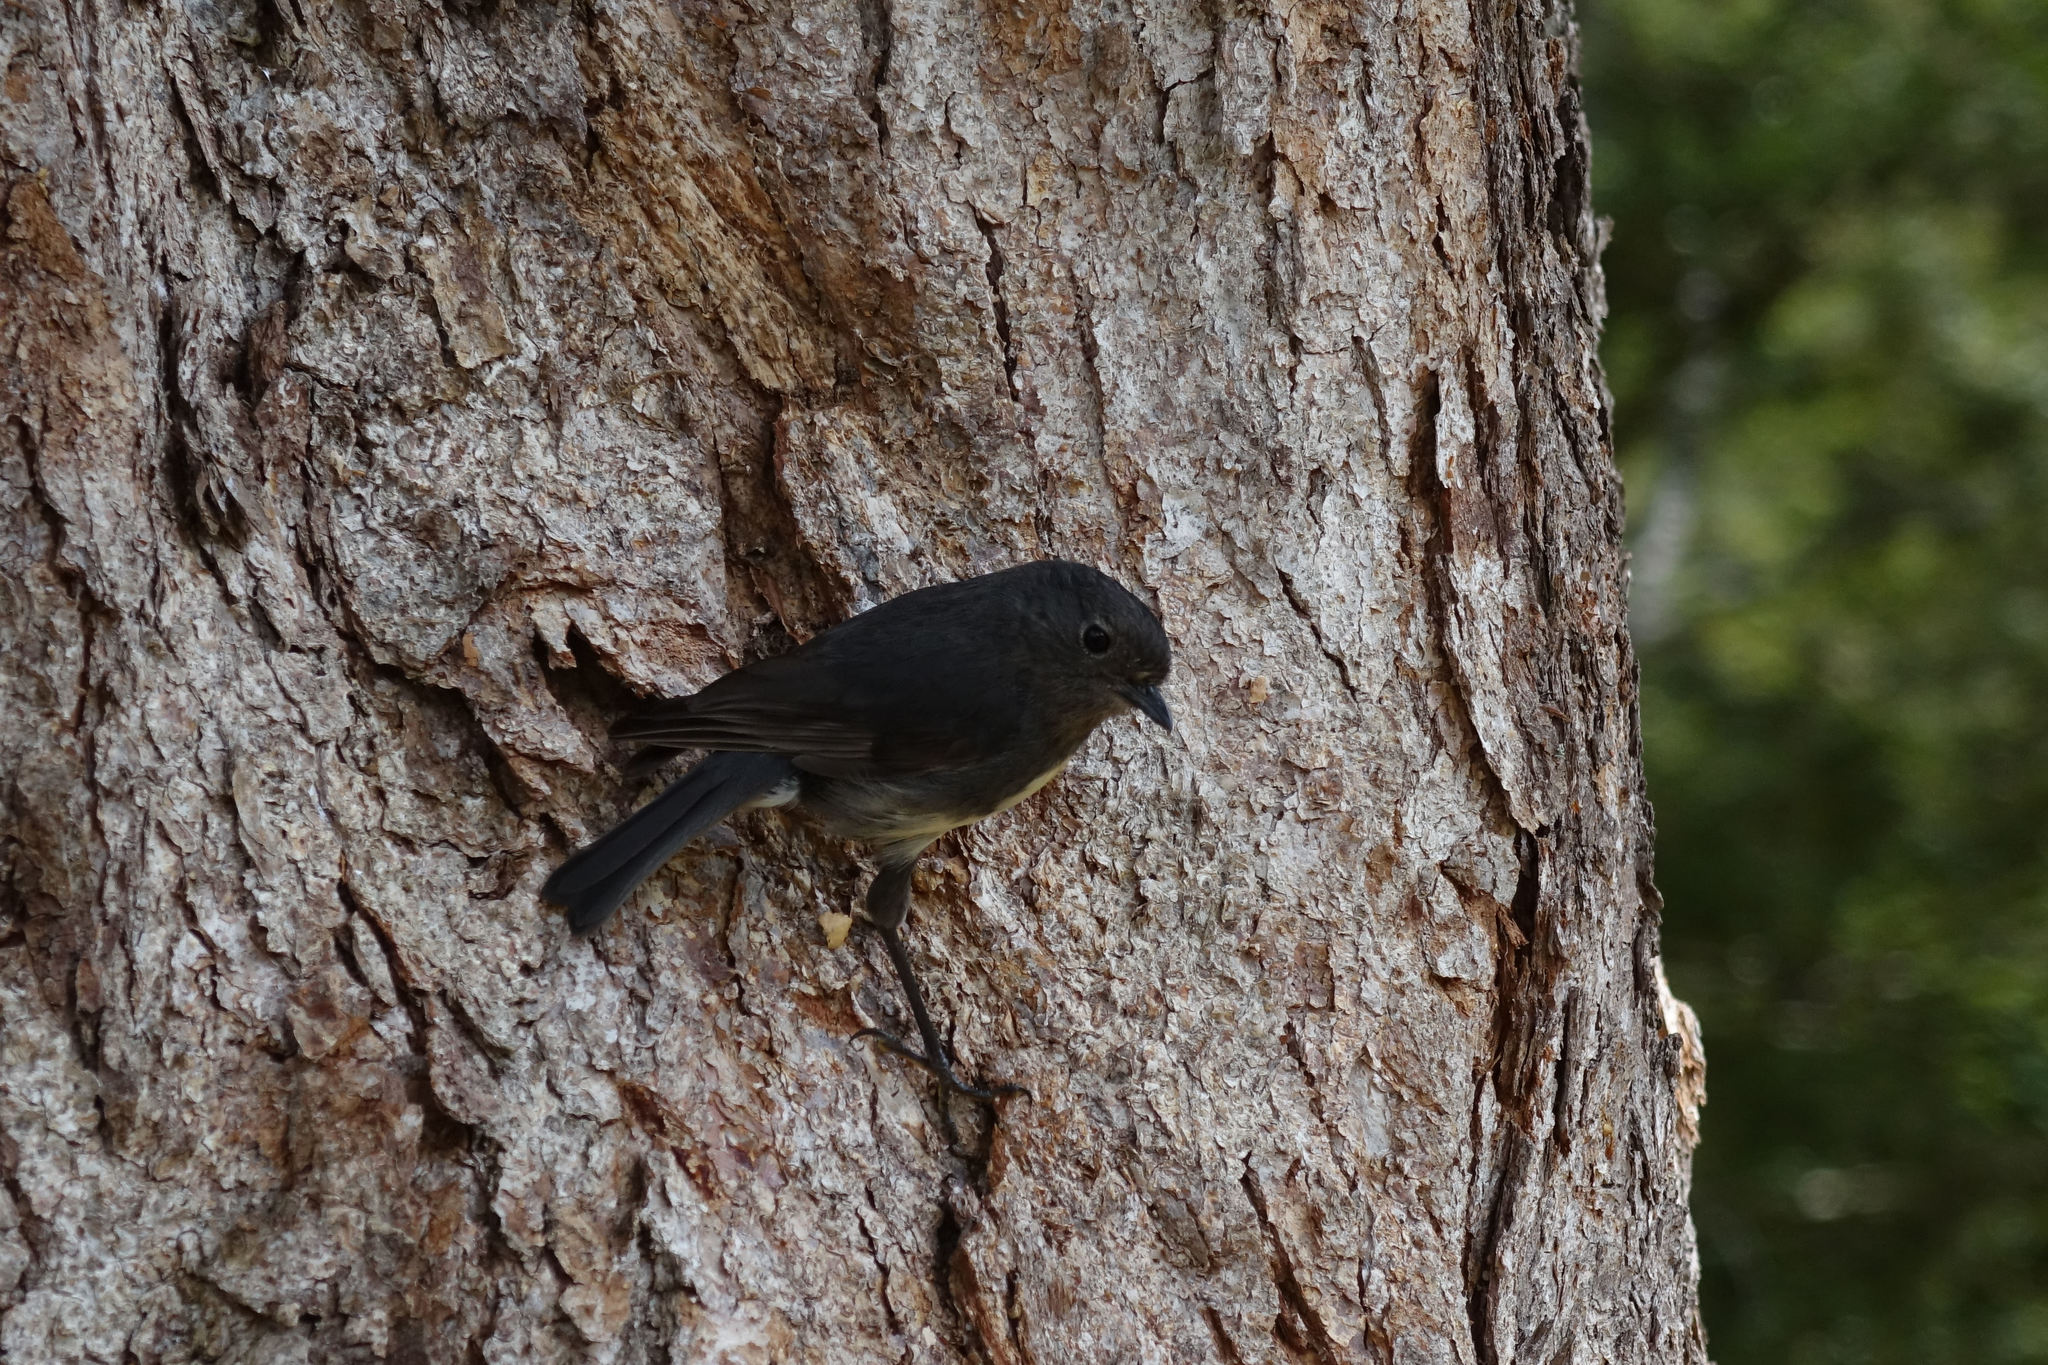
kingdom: Animalia
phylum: Chordata
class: Aves
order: Passeriformes
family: Petroicidae
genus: Petroica
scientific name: Petroica australis
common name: New zealand robin
